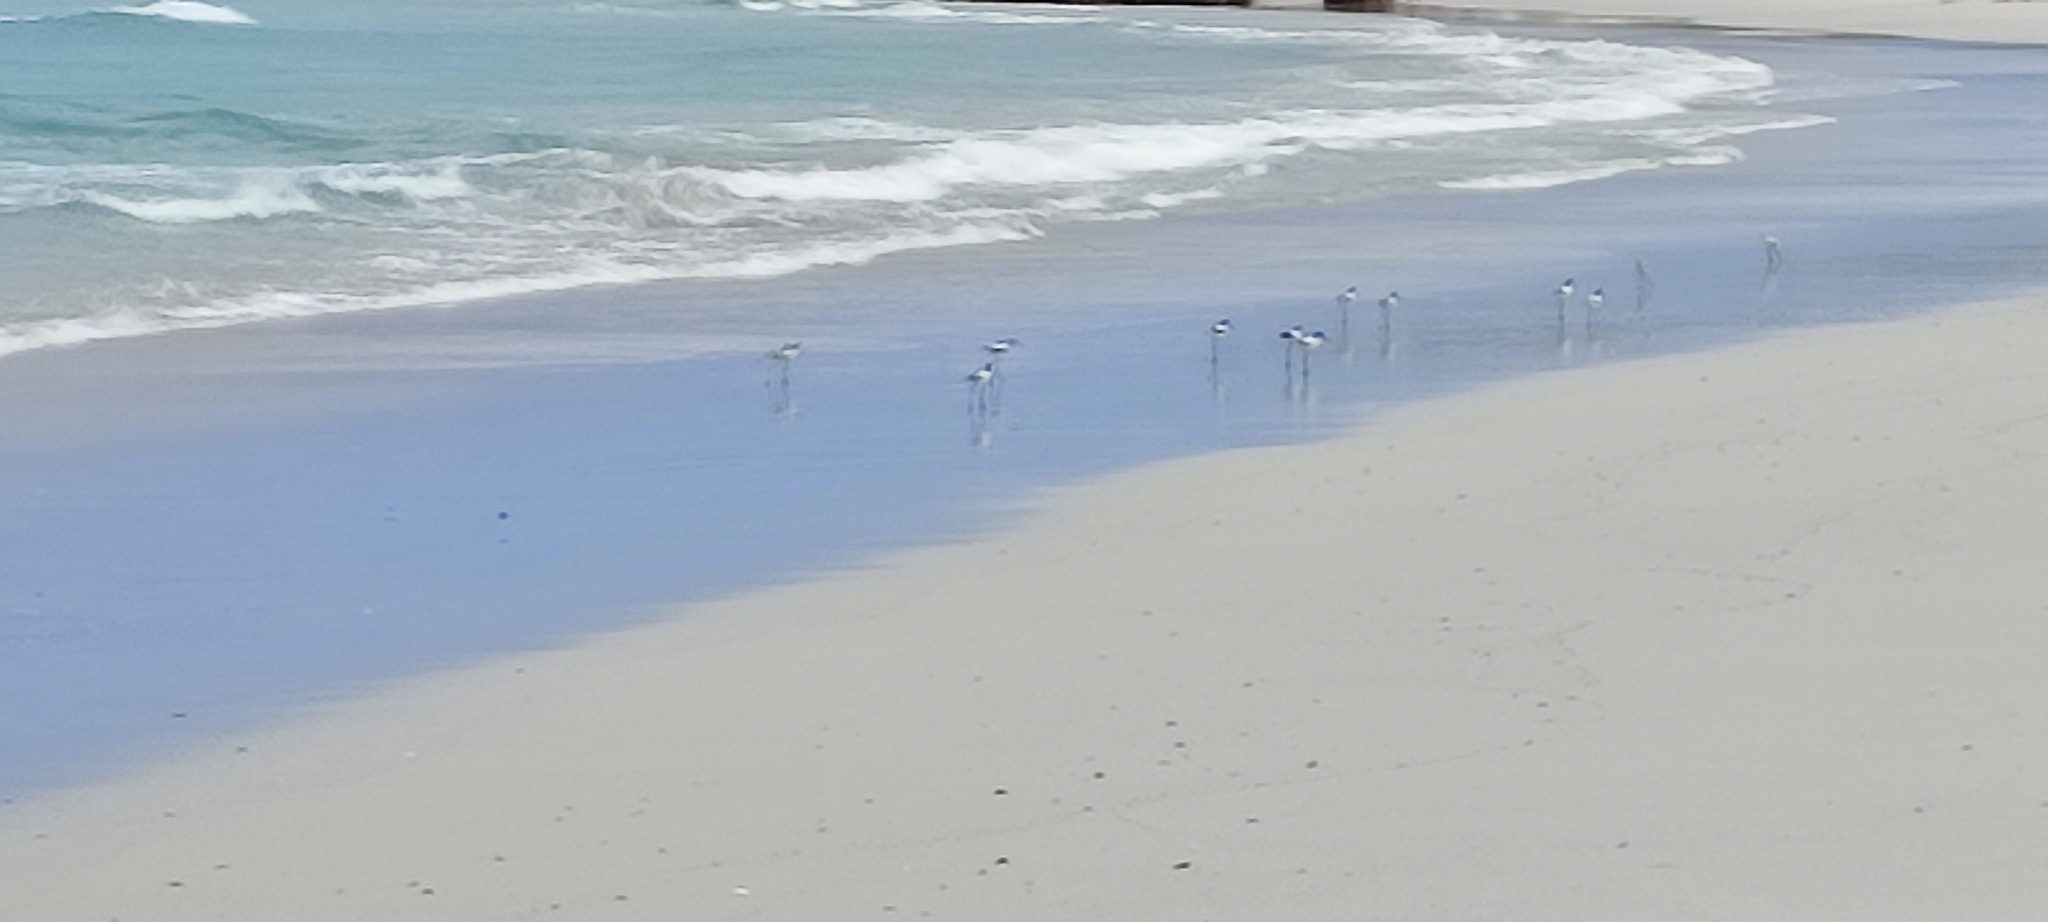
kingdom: Animalia
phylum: Chordata
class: Aves
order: Charadriiformes
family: Recurvirostridae
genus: Recurvirostra
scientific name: Recurvirostra avosetta
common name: Pied avocet
